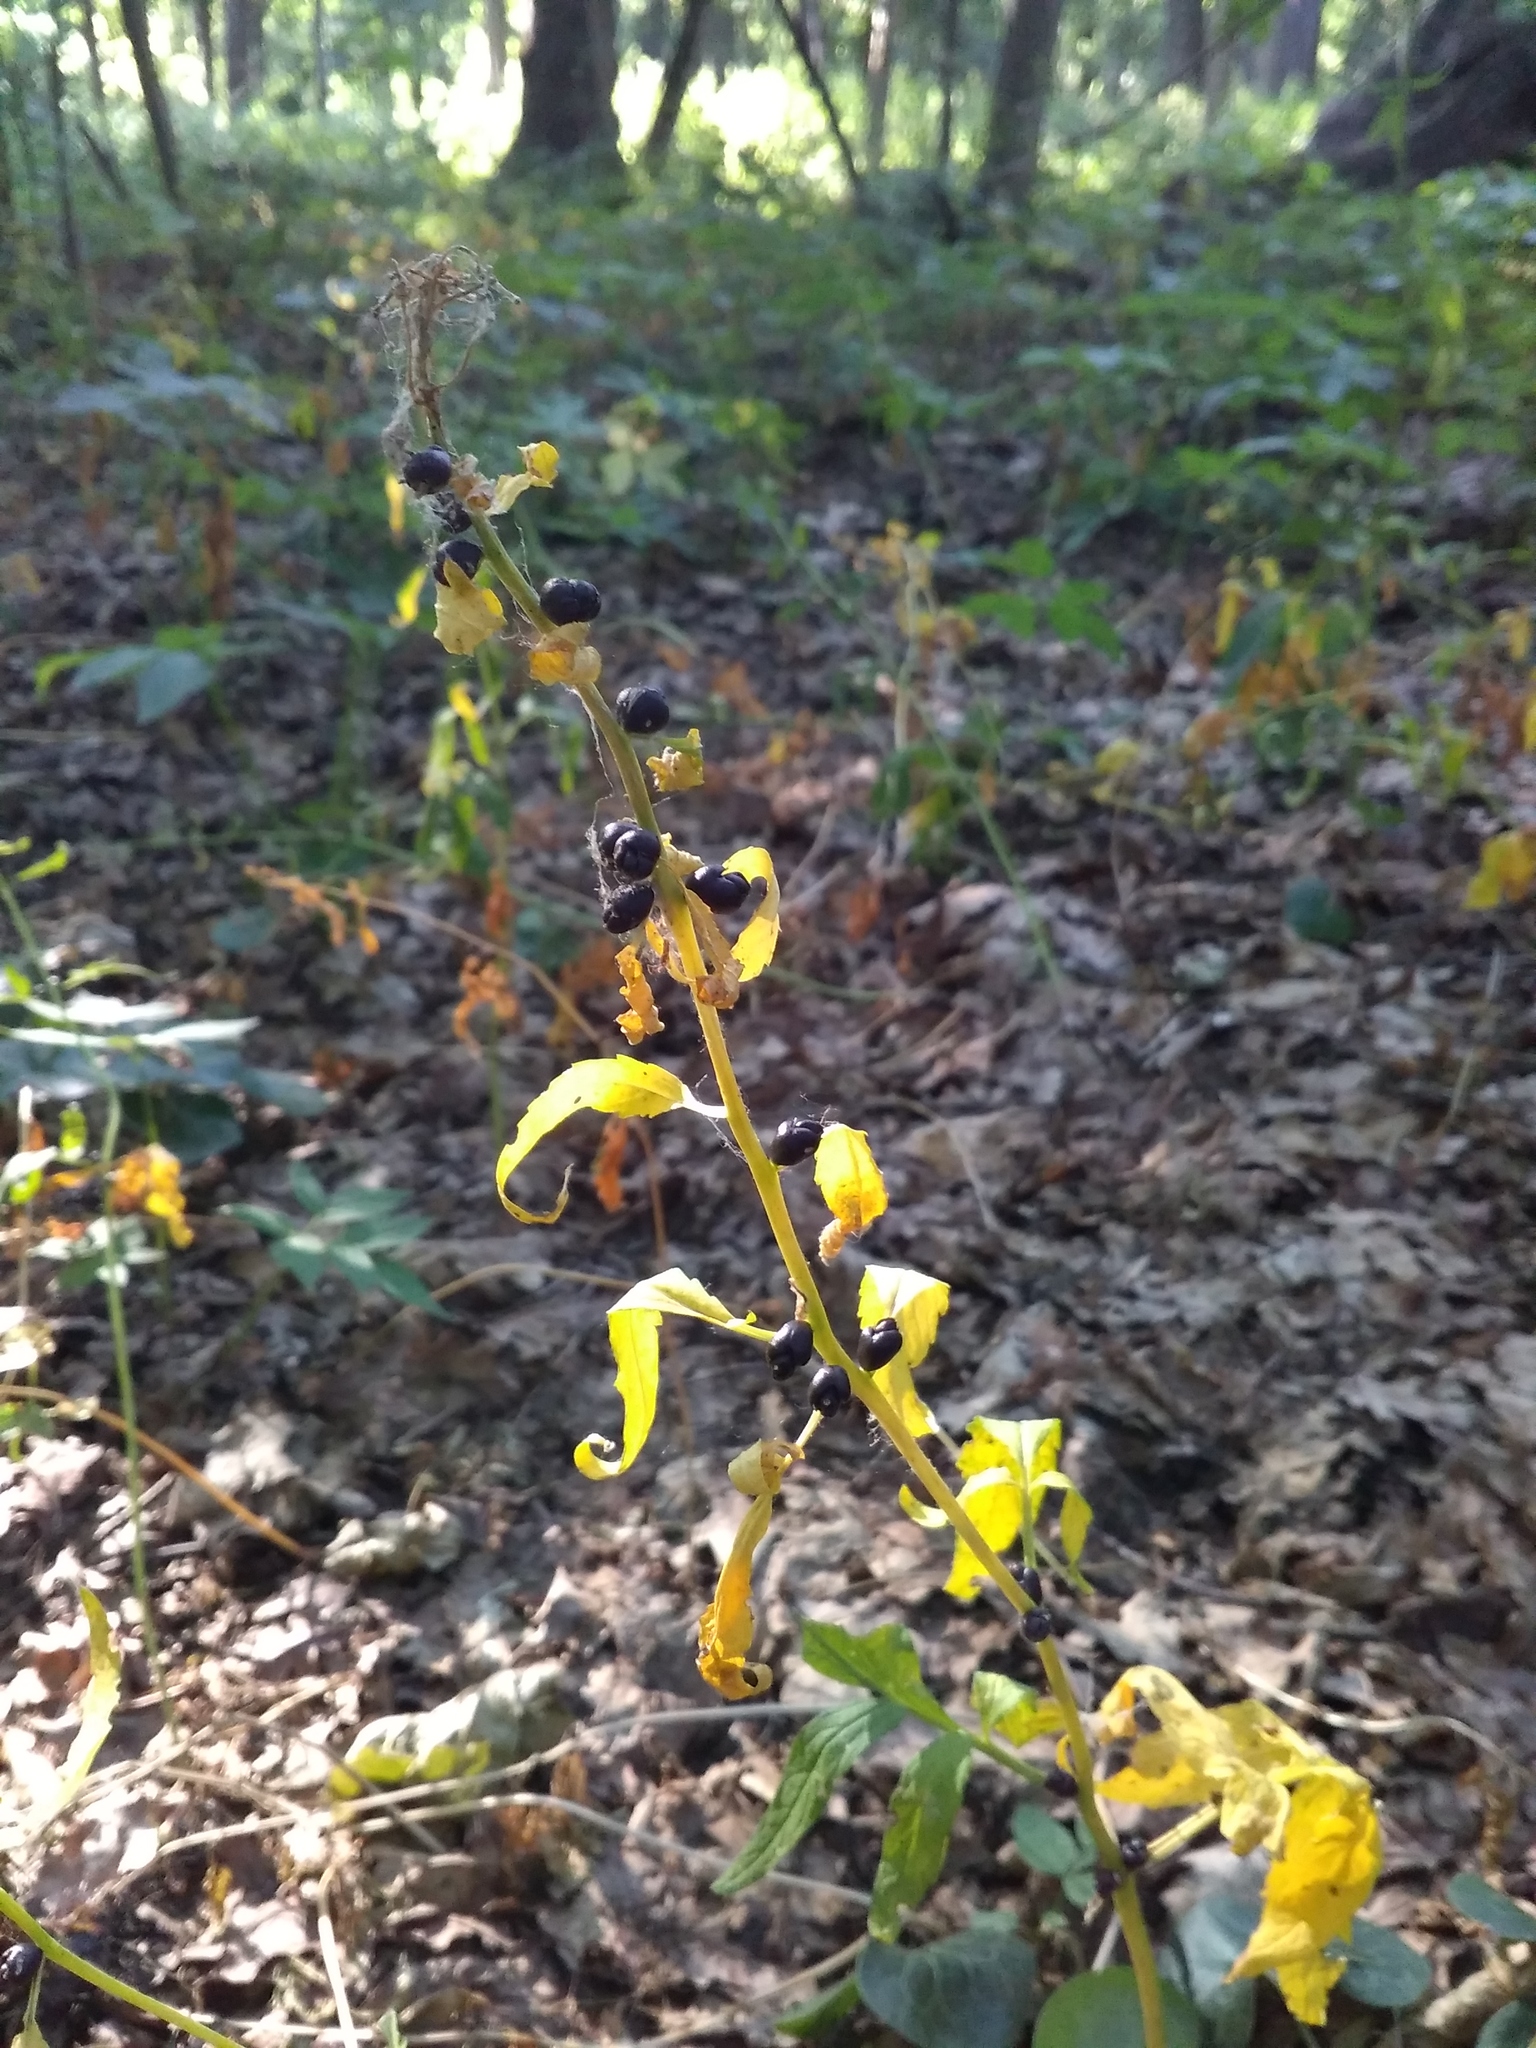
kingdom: Plantae
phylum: Tracheophyta
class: Magnoliopsida
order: Brassicales
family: Brassicaceae
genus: Cardamine
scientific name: Cardamine bulbifera
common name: Coralroot bittercress
